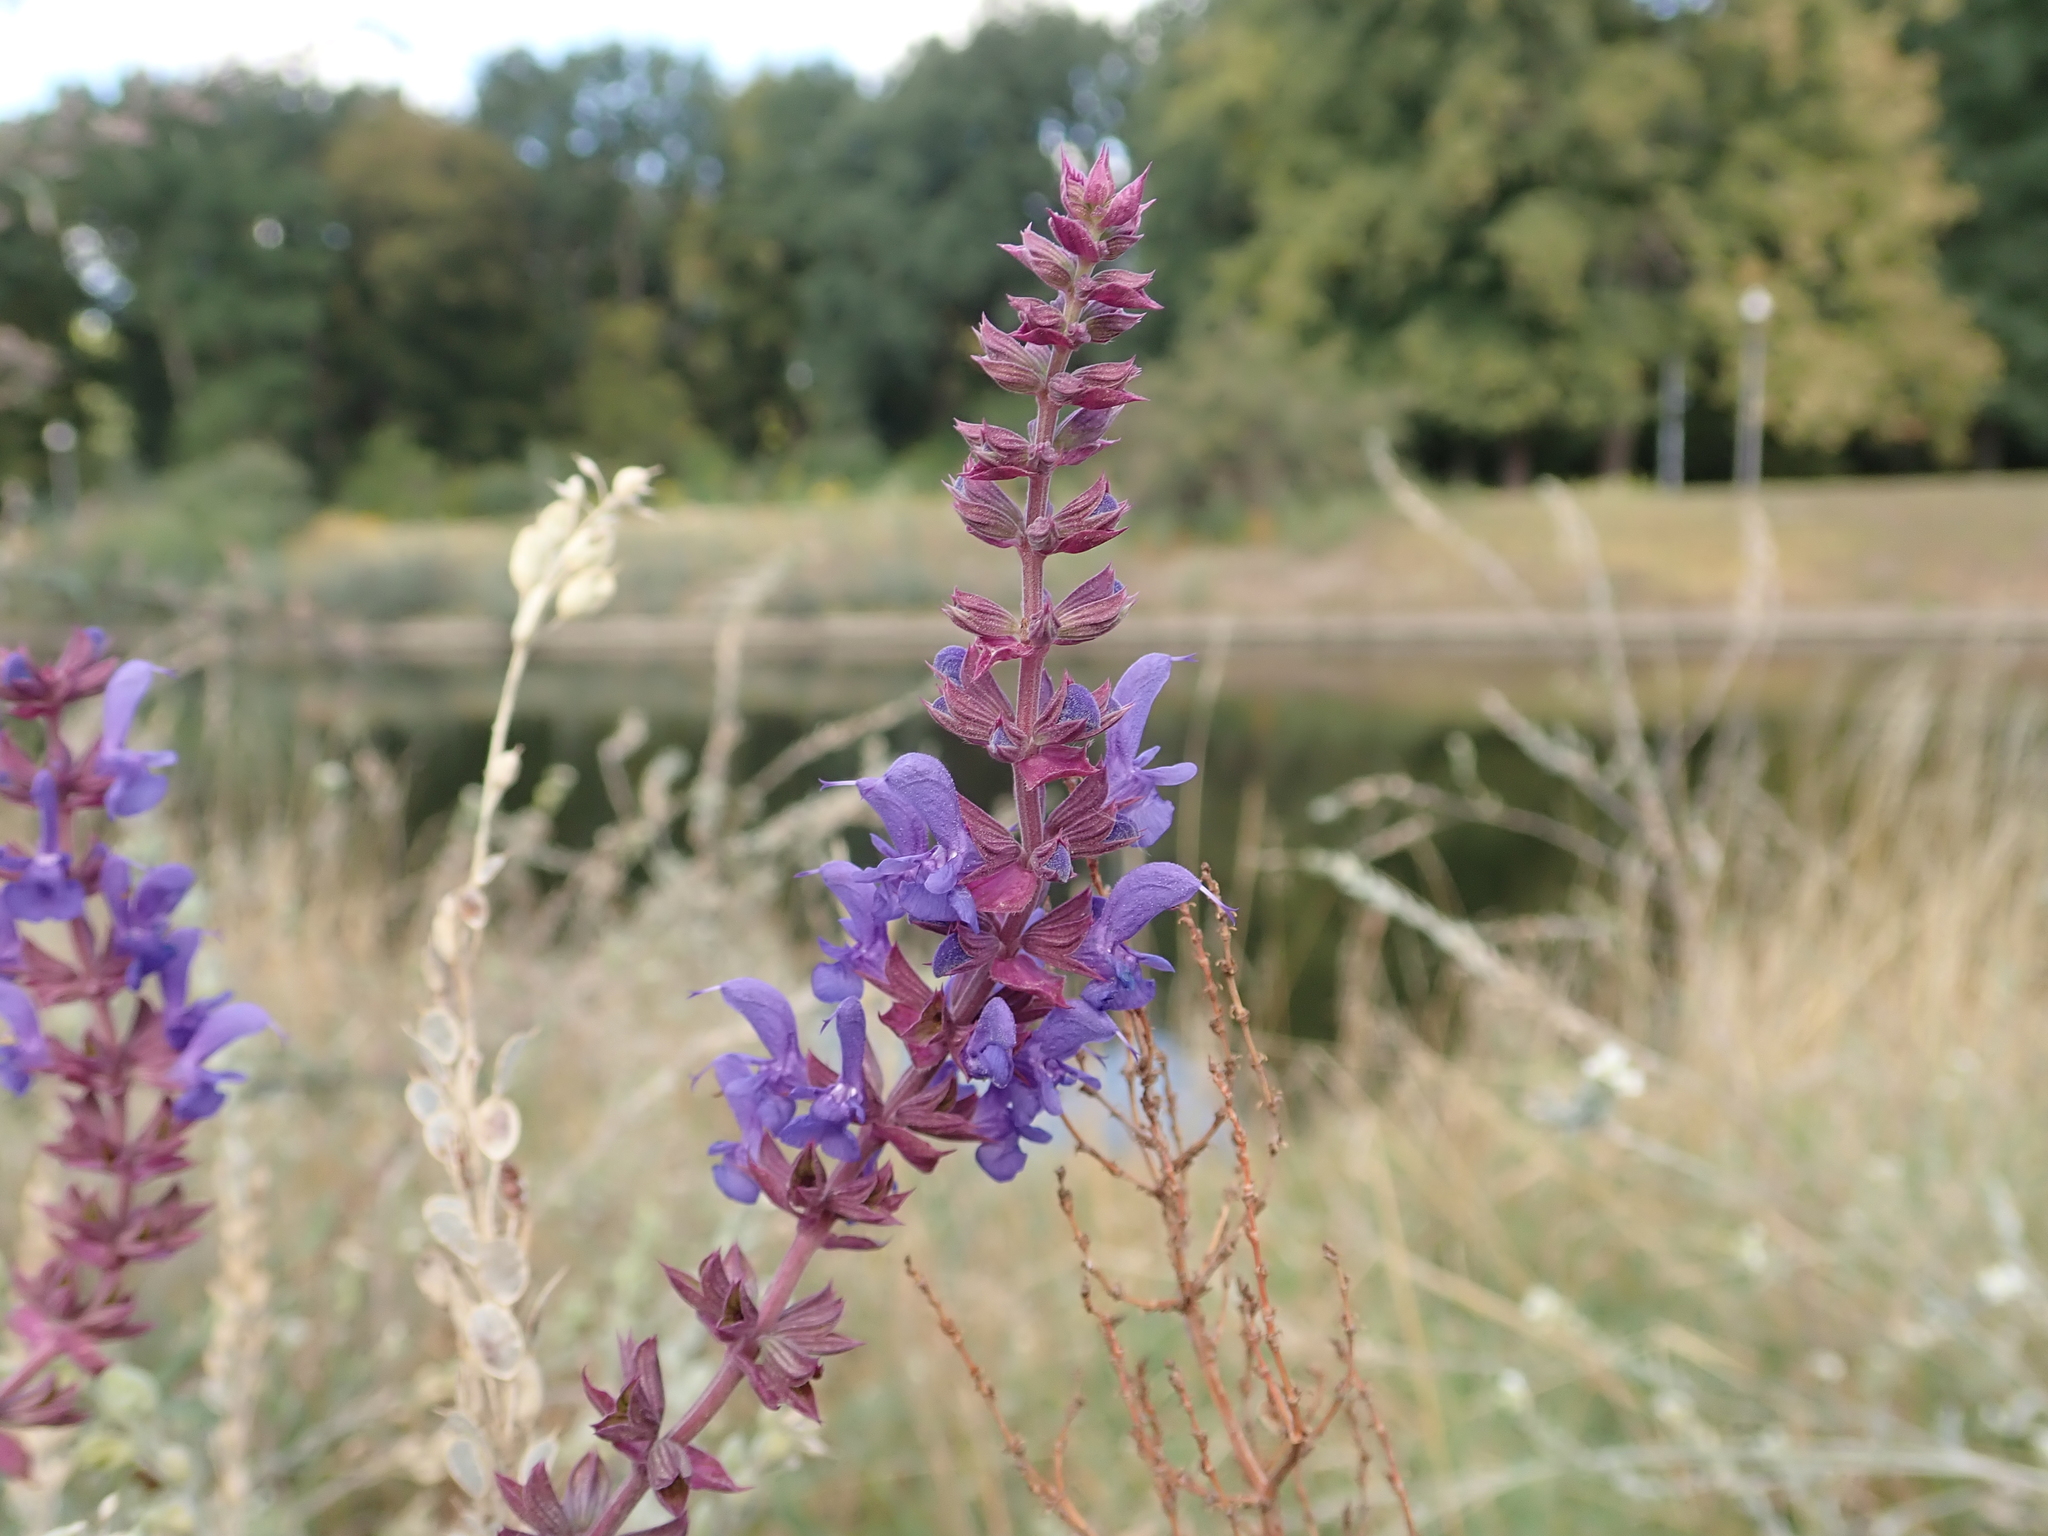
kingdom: Plantae
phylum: Tracheophyta
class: Magnoliopsida
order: Lamiales
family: Lamiaceae
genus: Salvia
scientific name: Salvia nemorosa
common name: Balkan clary
